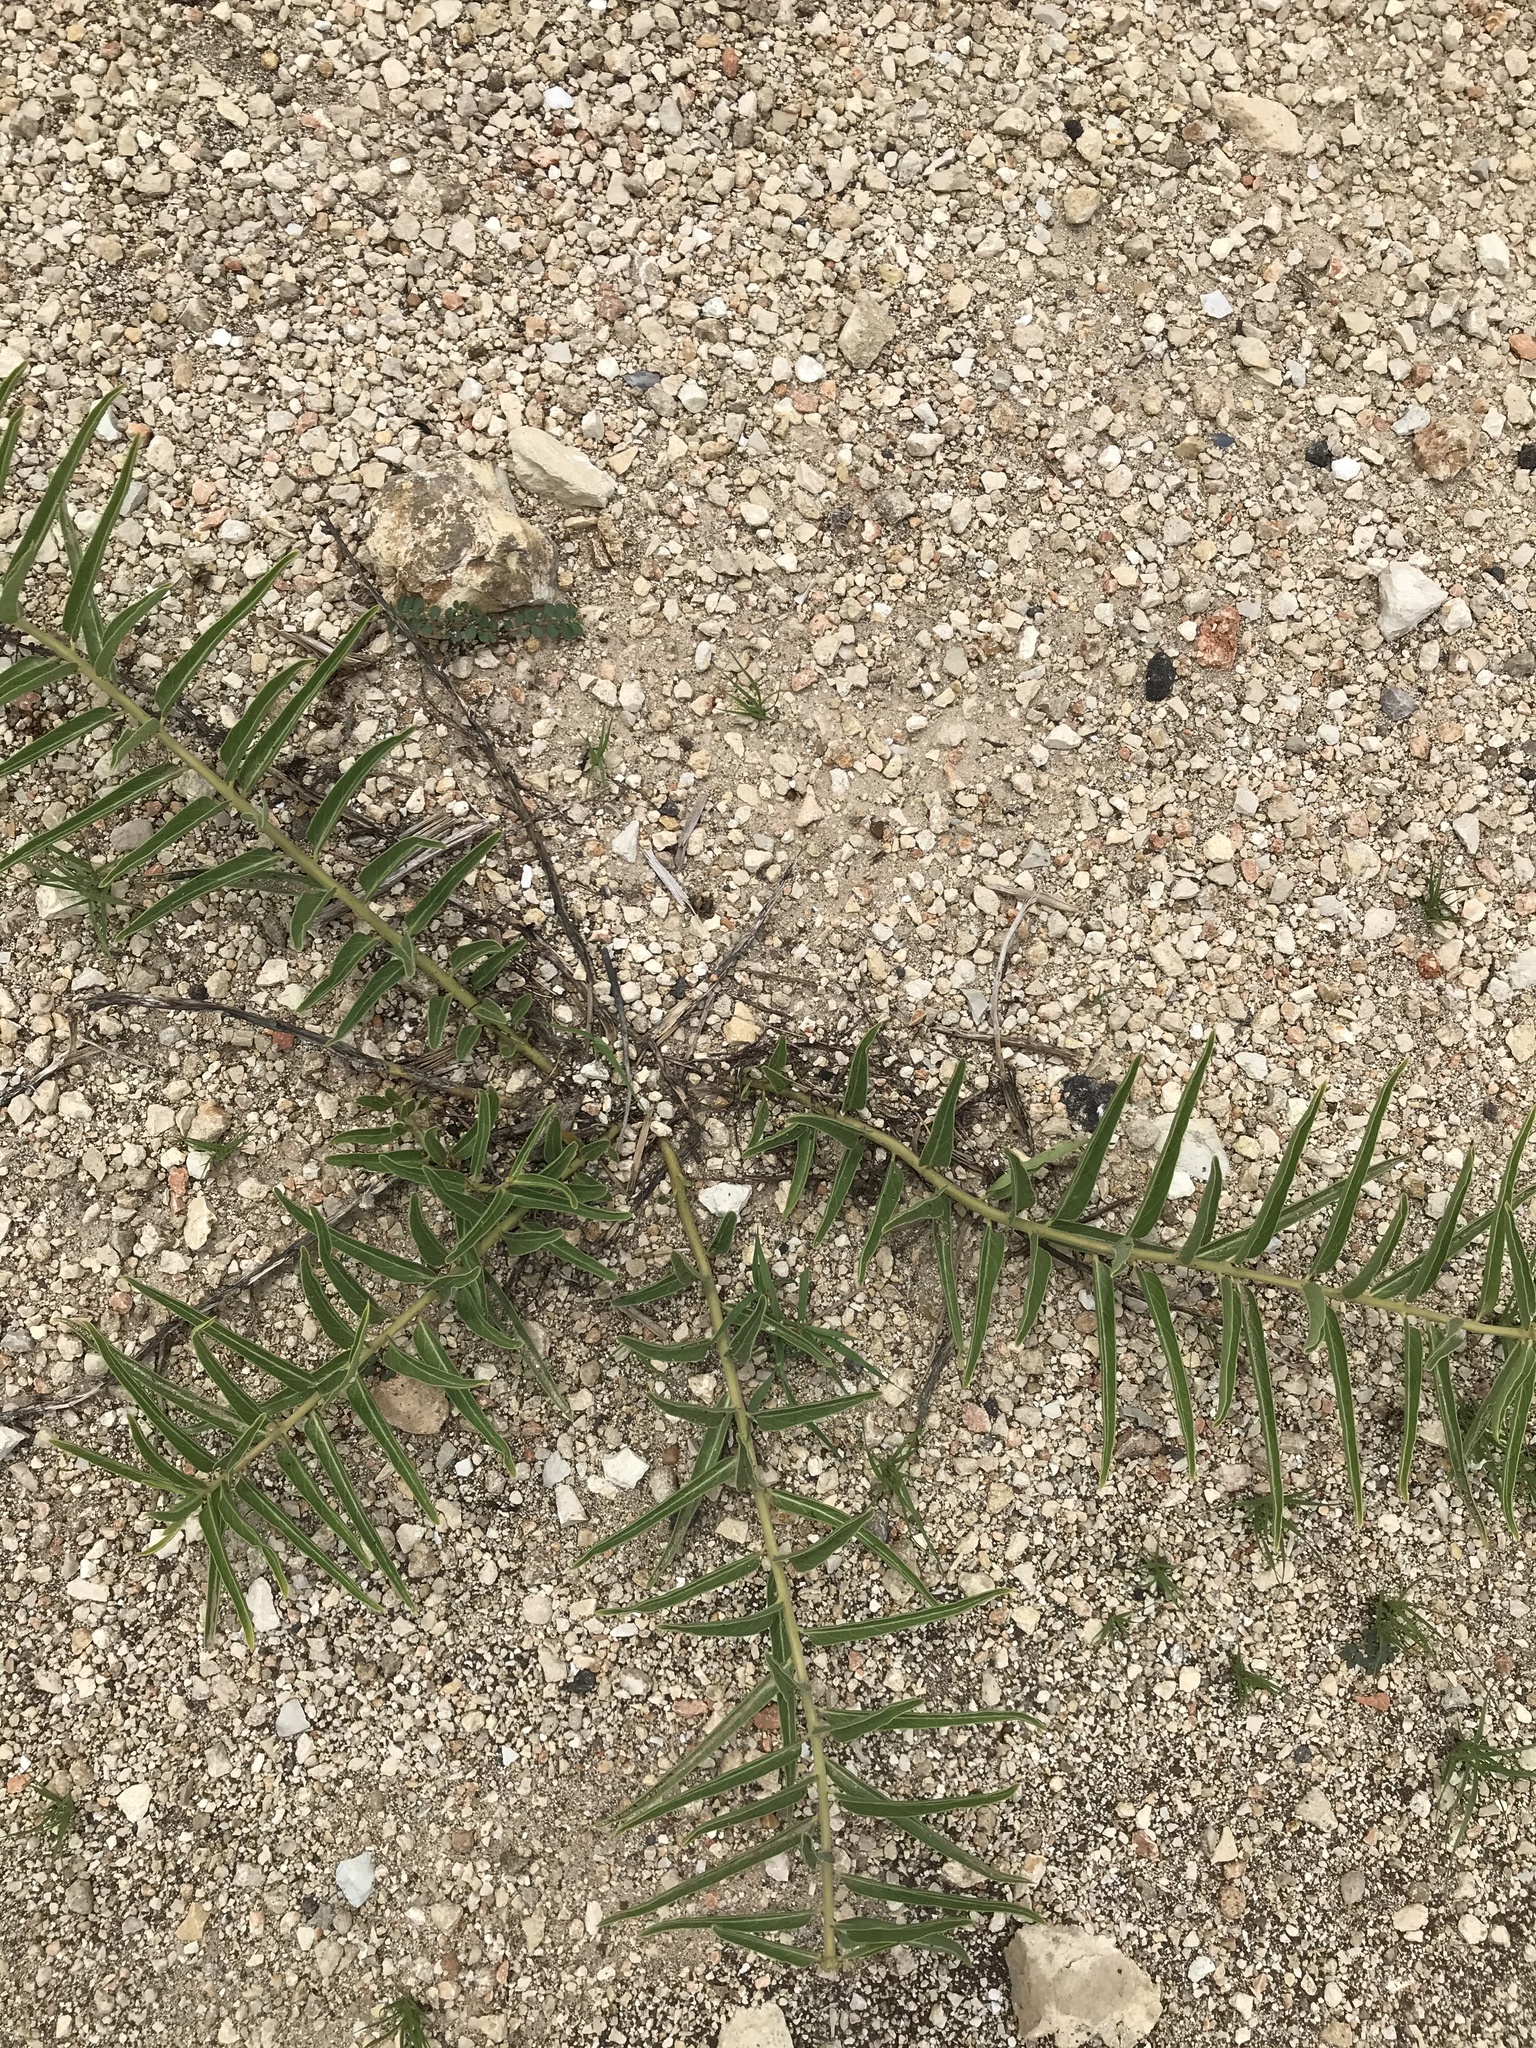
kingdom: Plantae
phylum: Tracheophyta
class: Magnoliopsida
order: Gentianales
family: Apocynaceae
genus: Asclepias
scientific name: Asclepias asperula
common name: Antelope horns
